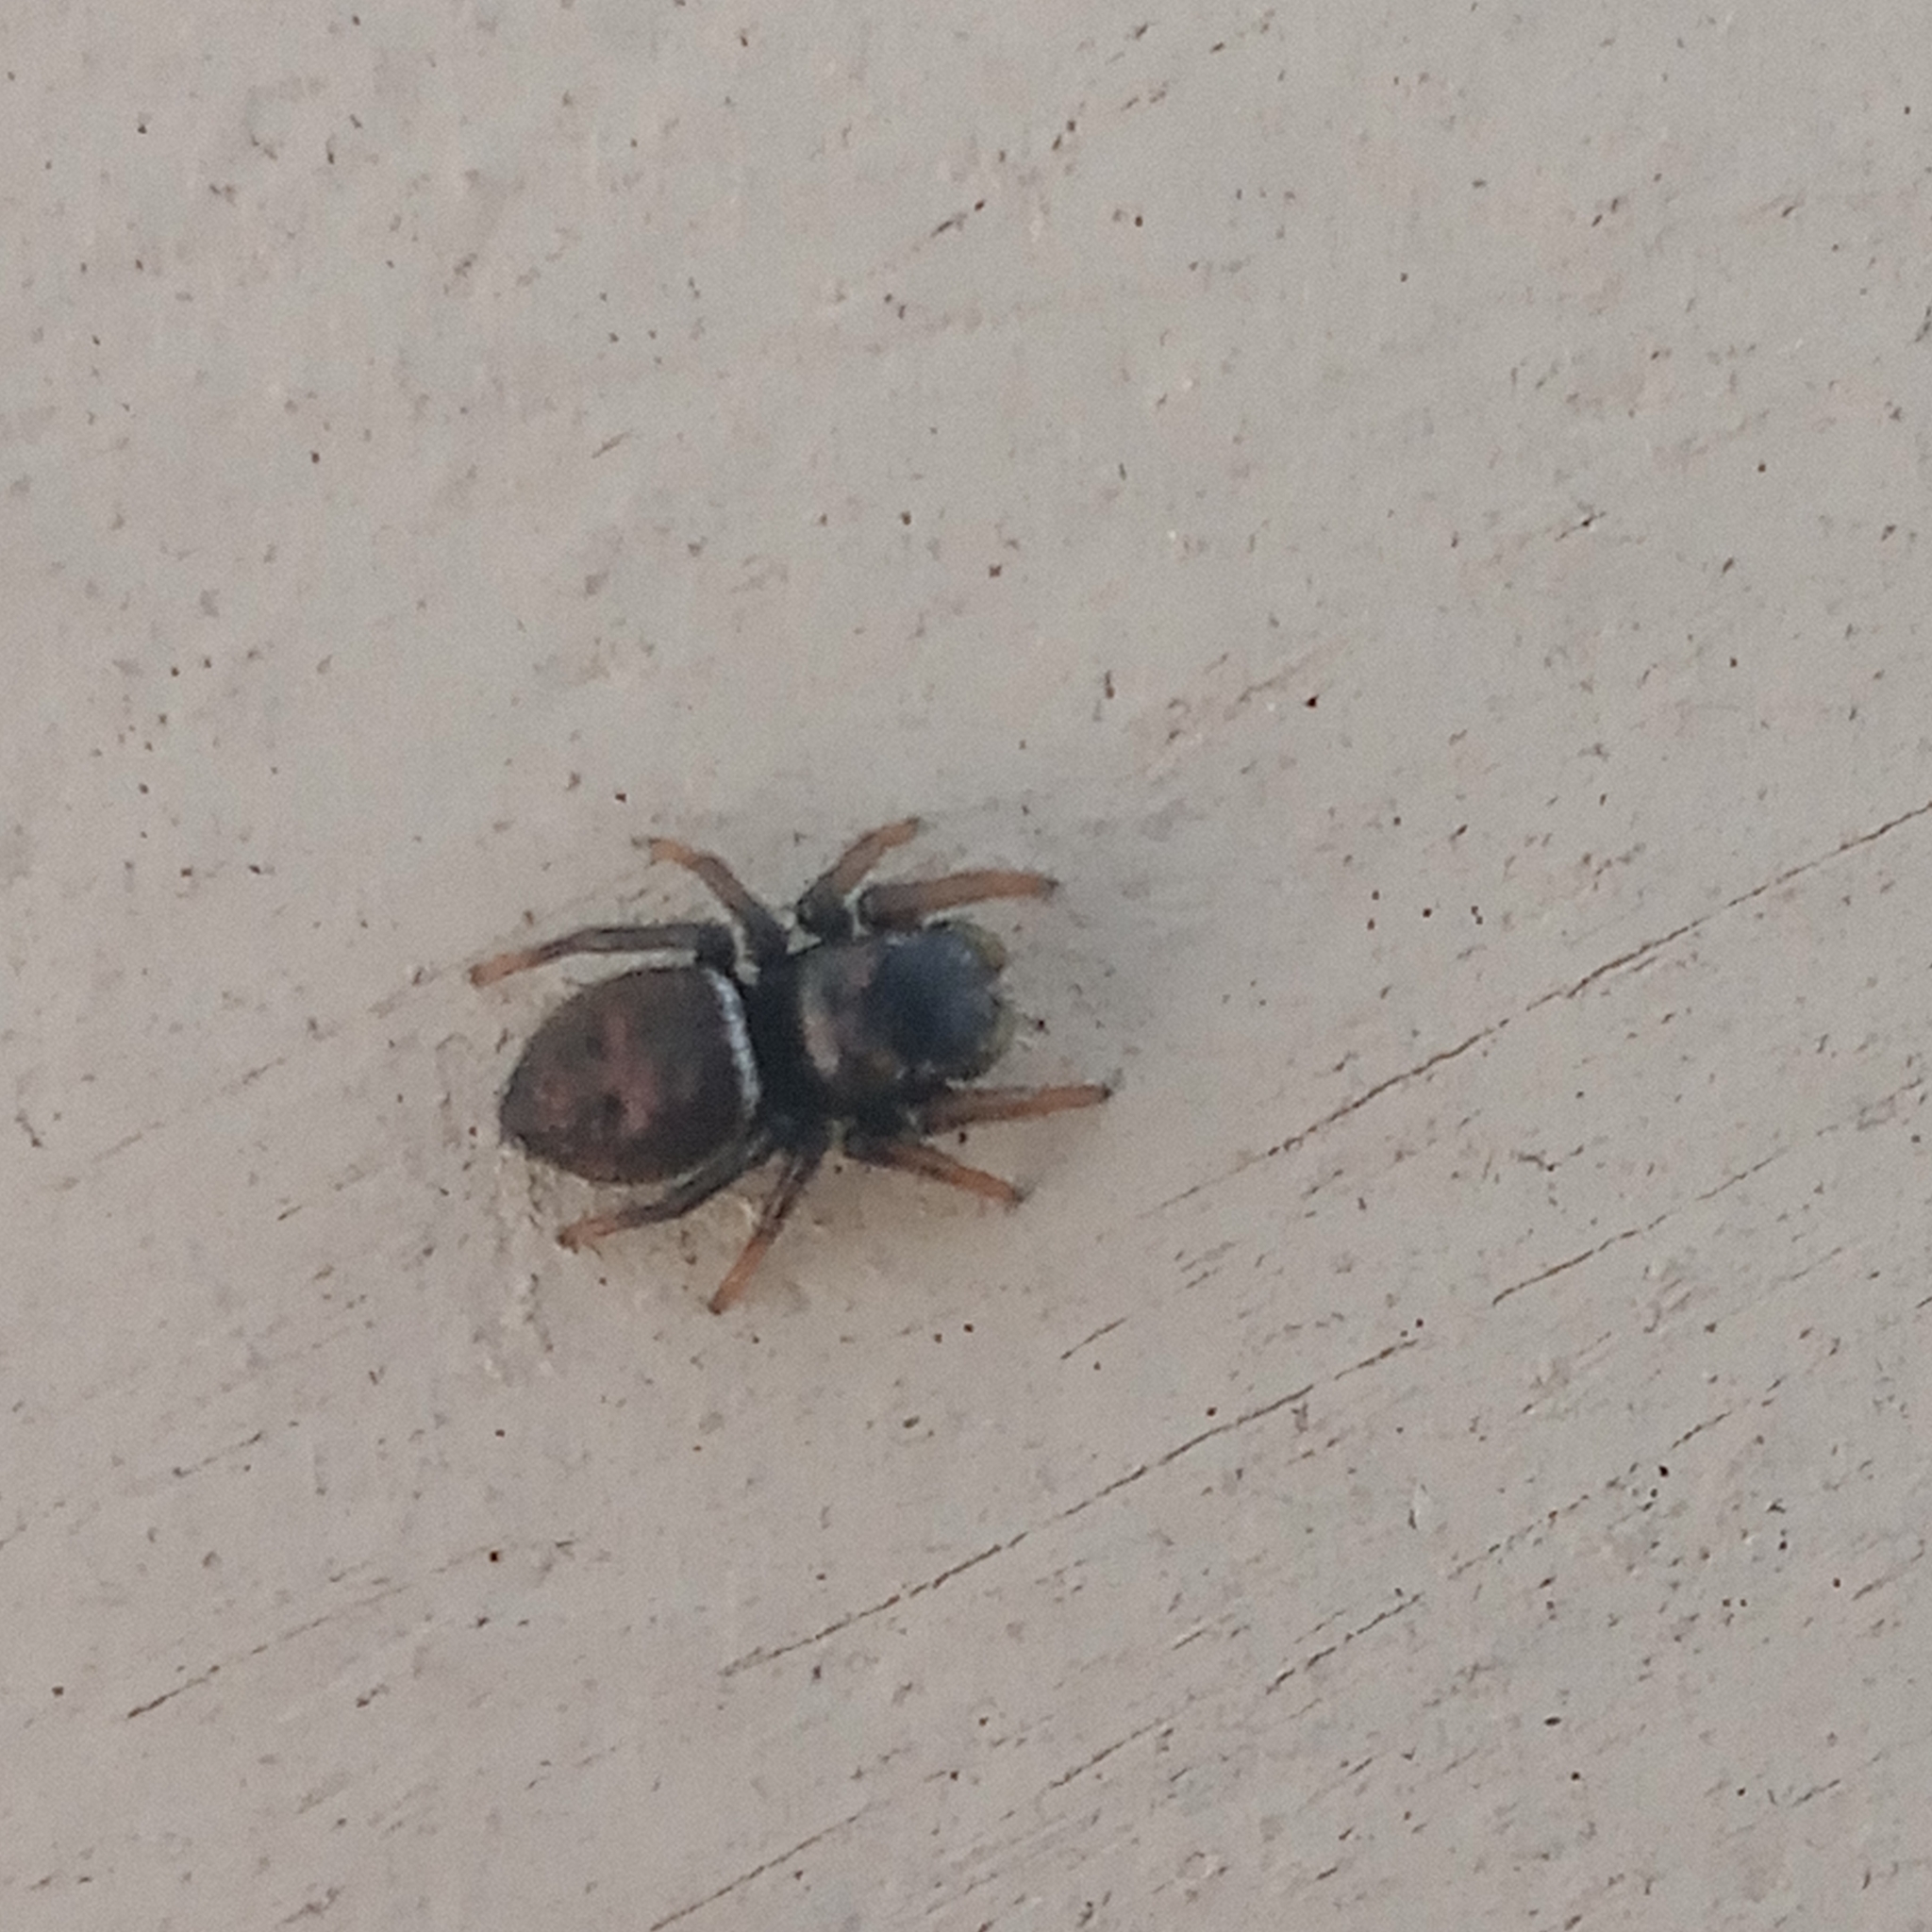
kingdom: Animalia
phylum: Arthropoda
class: Arachnida
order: Araneae
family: Salticidae
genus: Heliophanus
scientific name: Heliophanus
